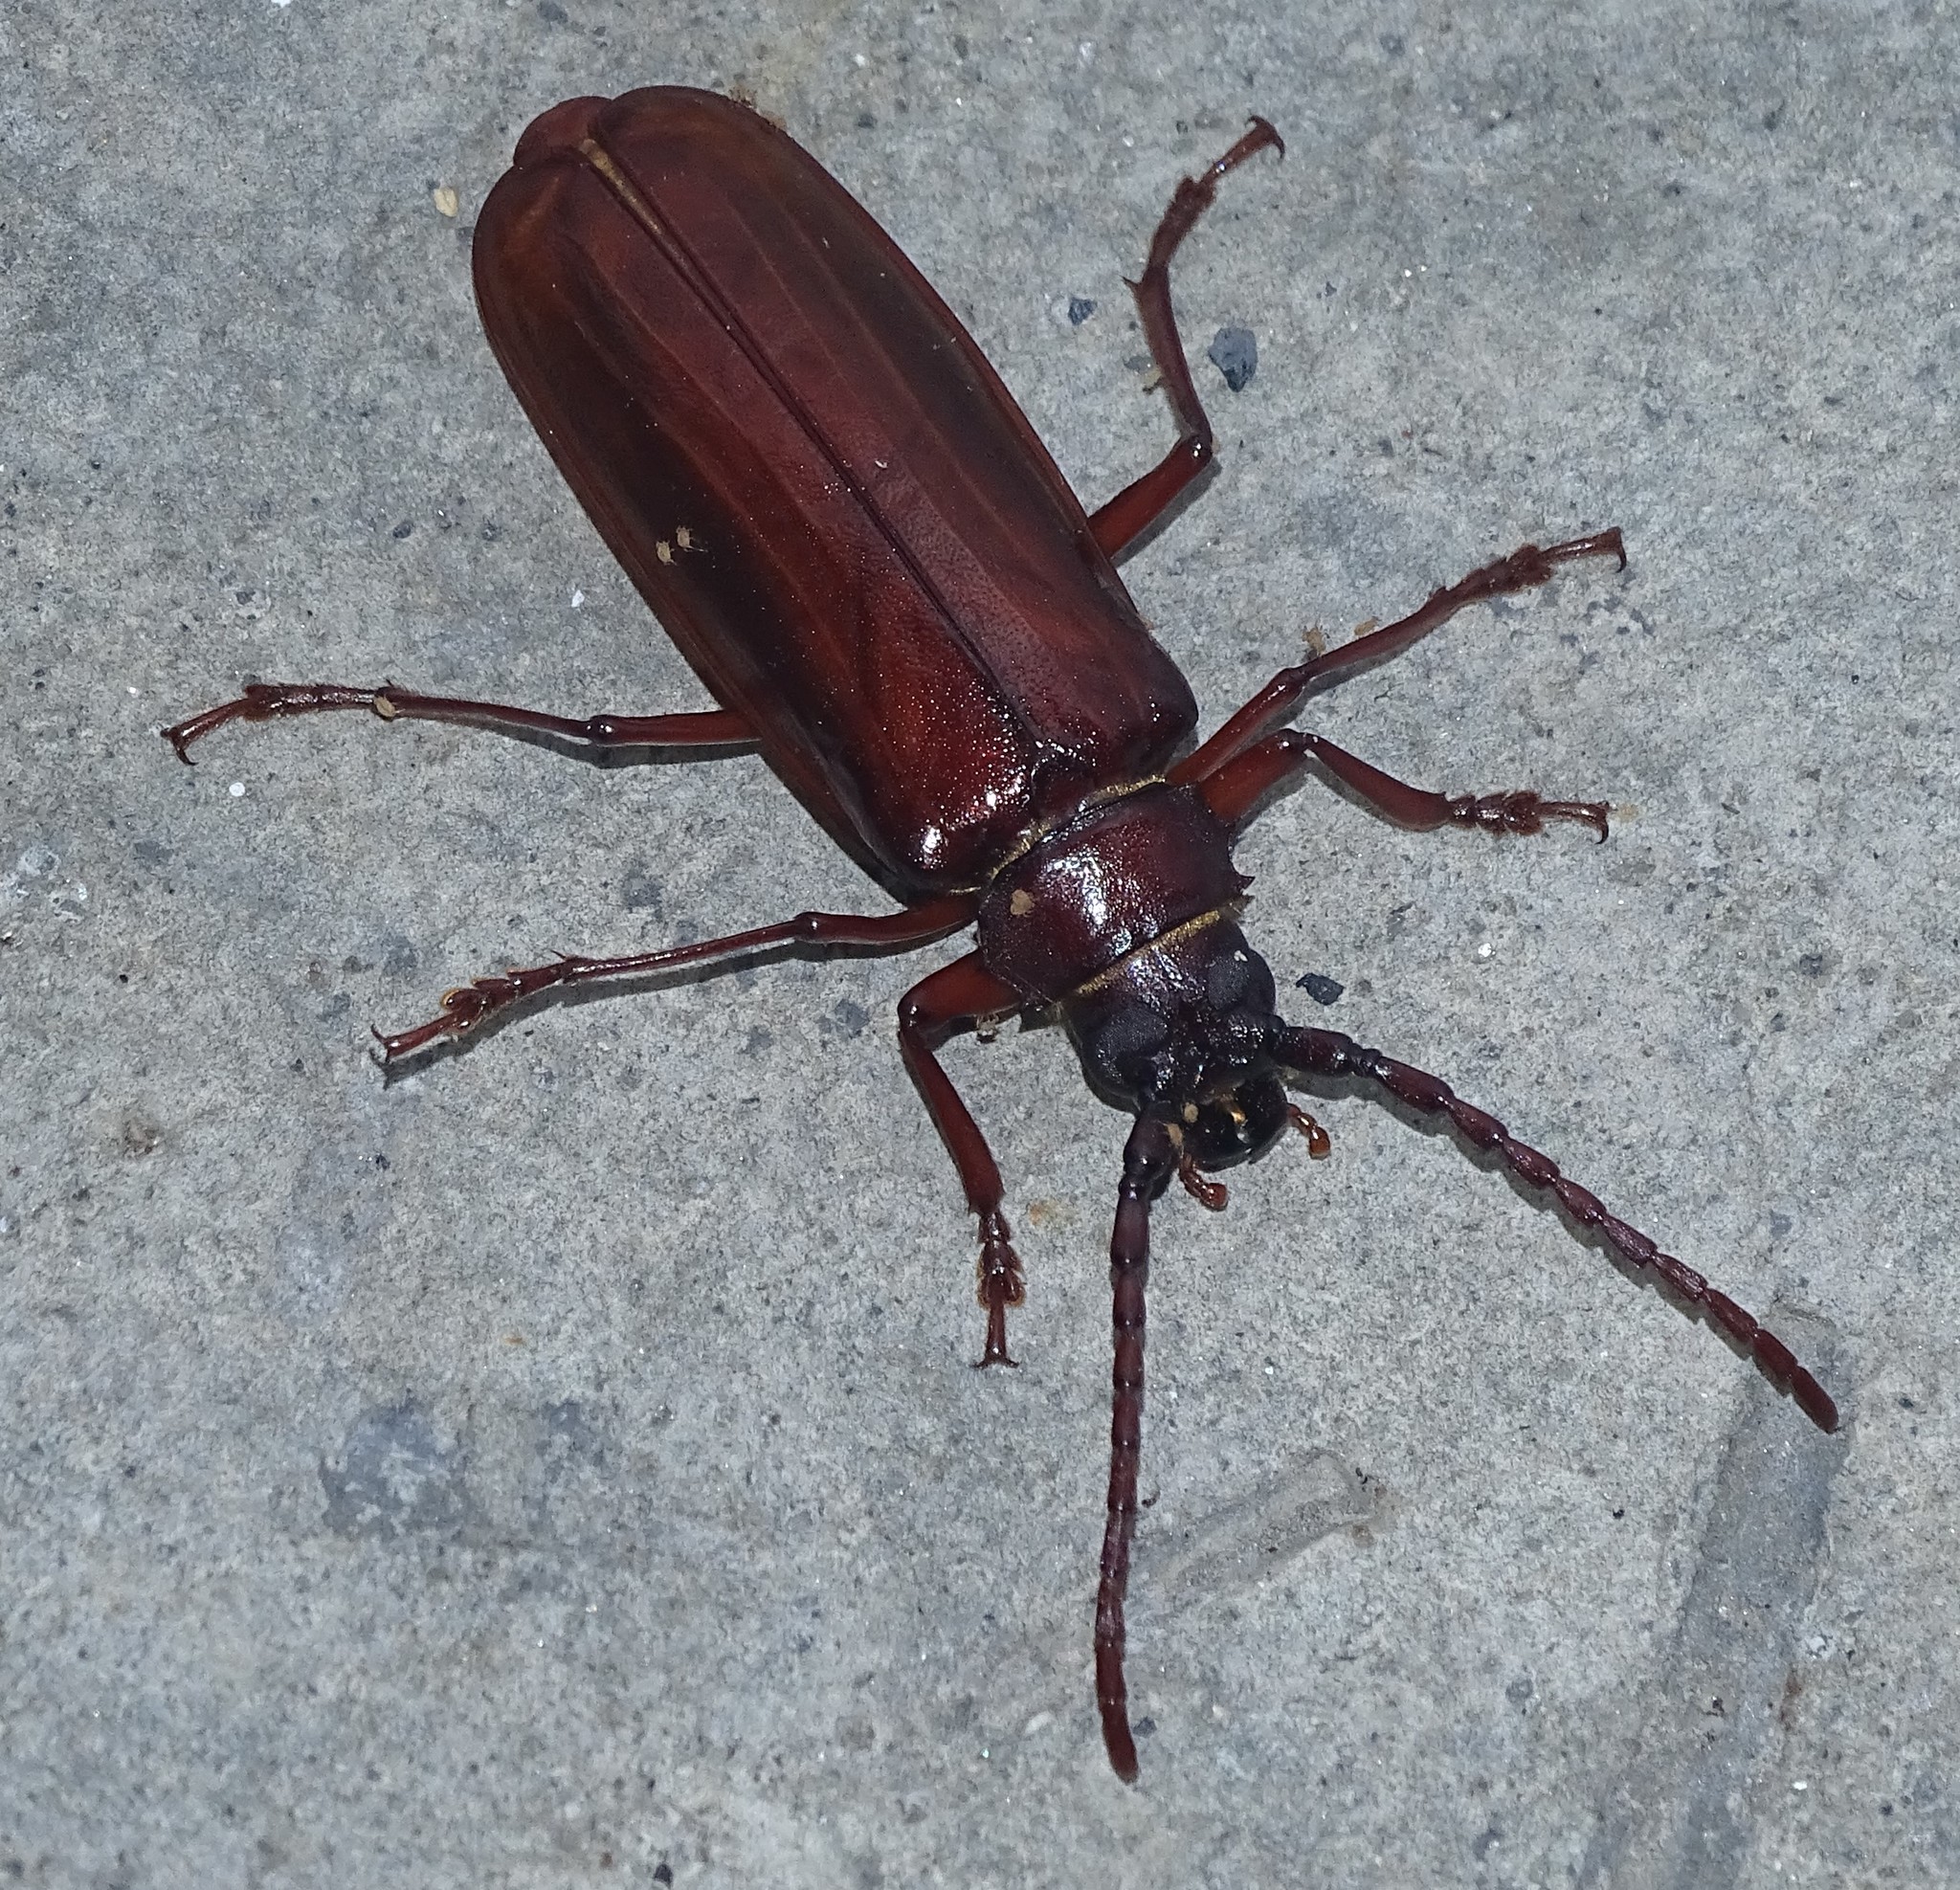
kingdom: Animalia
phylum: Arthropoda
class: Insecta
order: Coleoptera
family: Cerambycidae
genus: Orthosoma
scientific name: Orthosoma brunneum
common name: Brown prionid beetle
